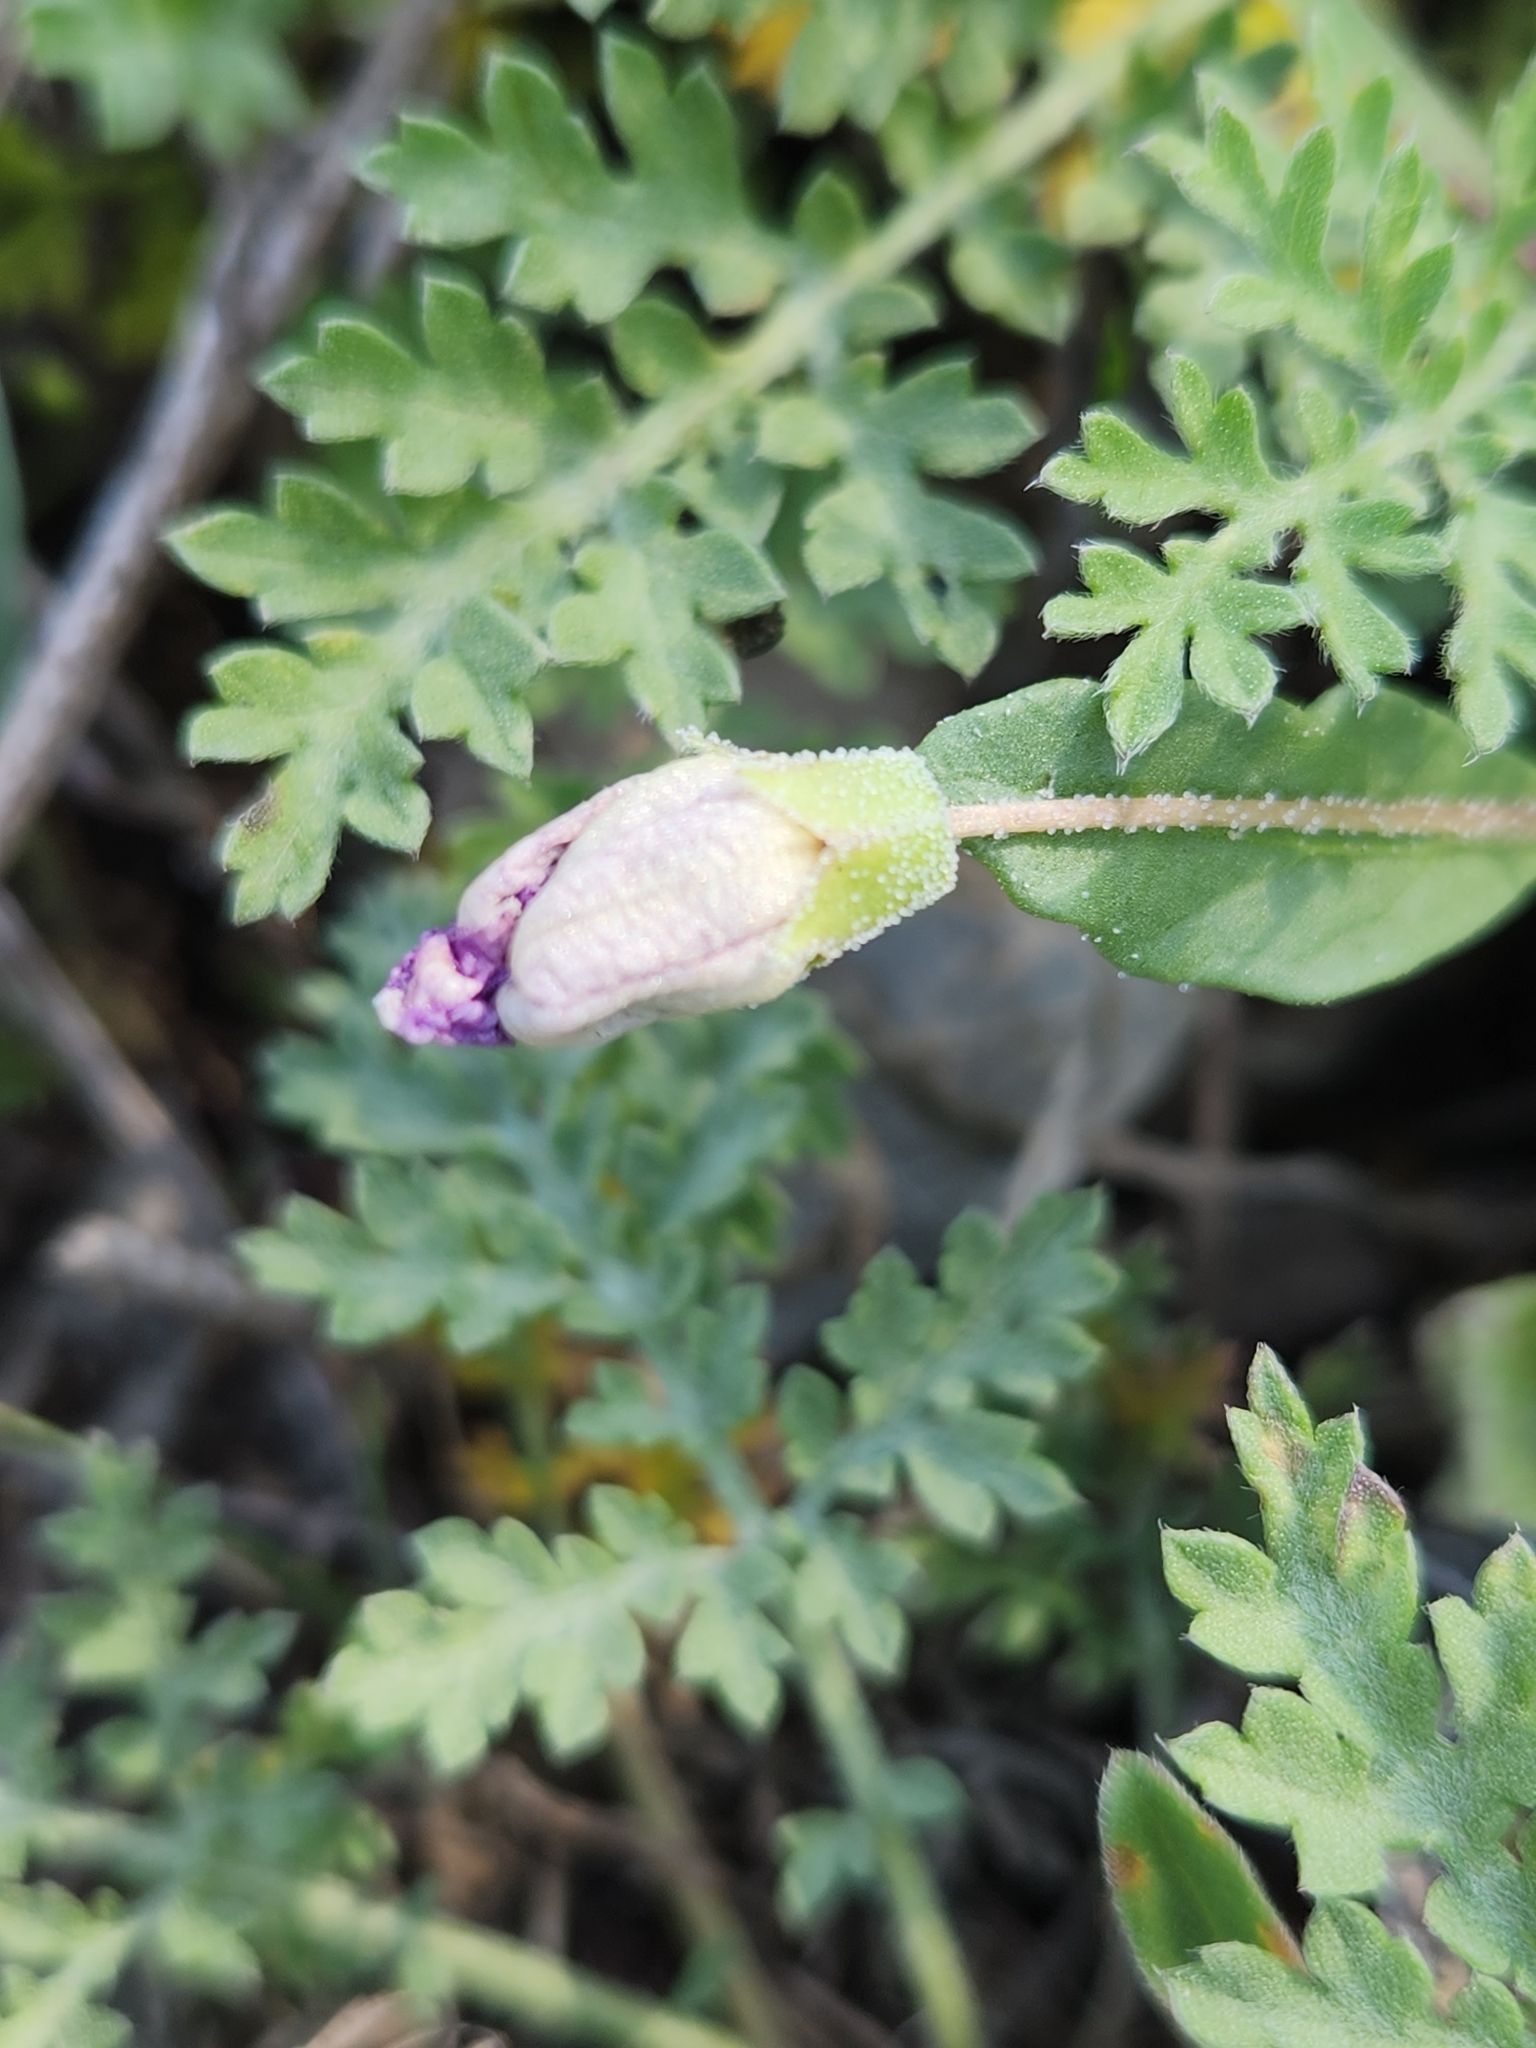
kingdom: Plantae
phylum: Tracheophyta
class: Magnoliopsida
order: Solanales
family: Solanaceae
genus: Quincula
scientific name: Quincula lobata
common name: Purple-ground-cherry
